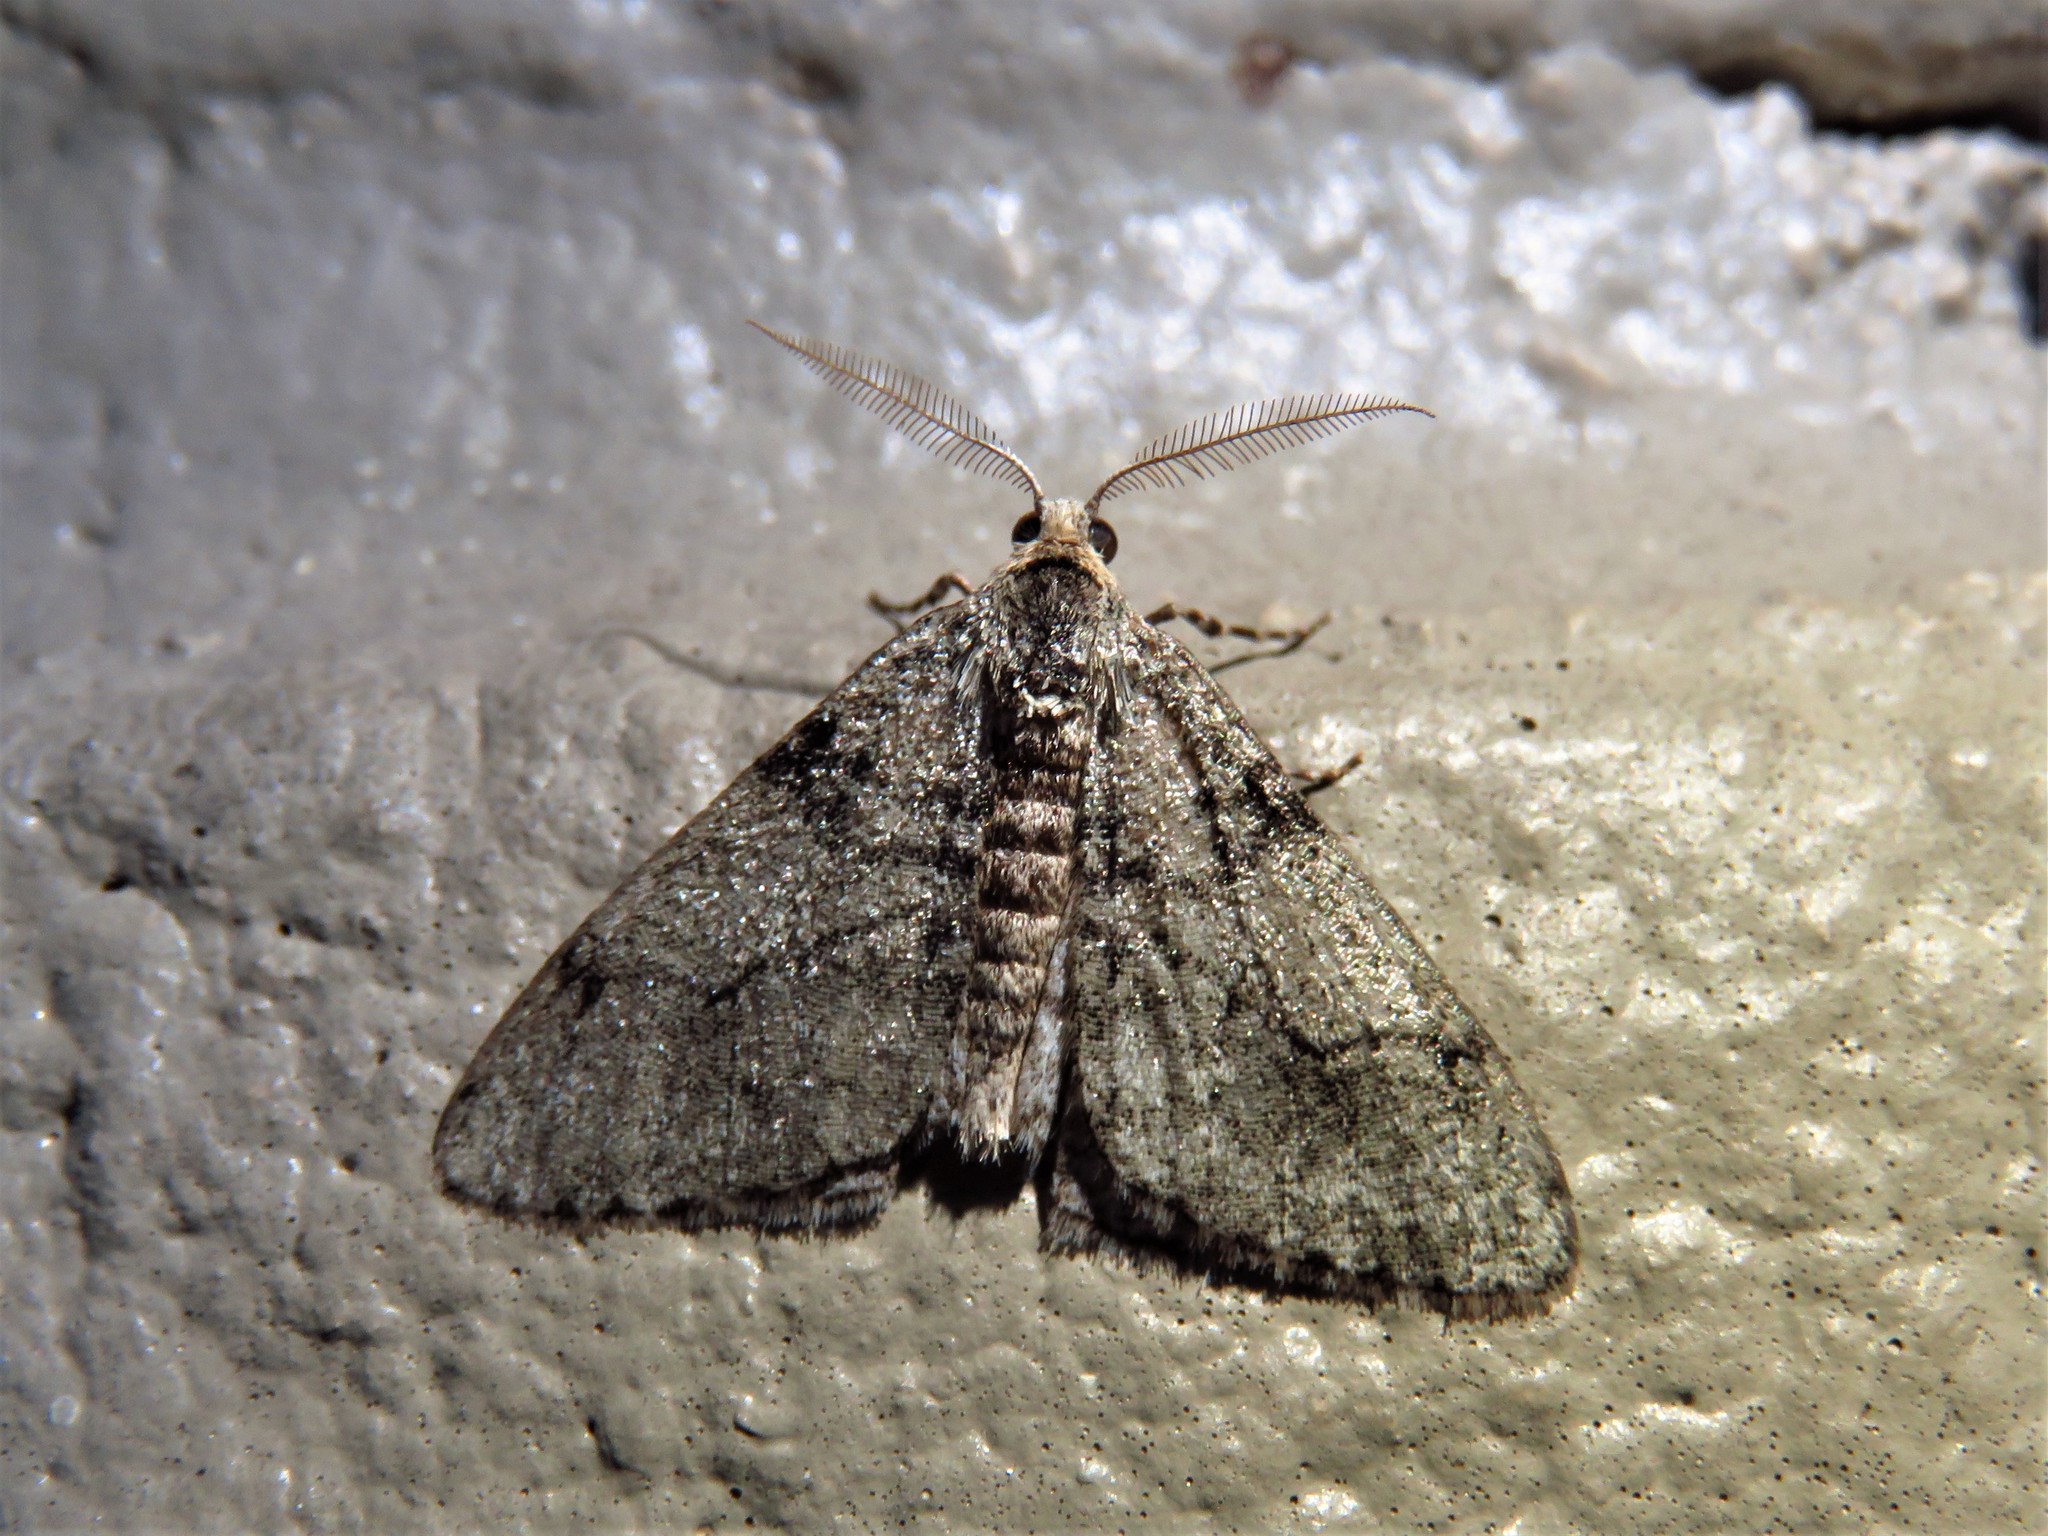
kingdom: Animalia
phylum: Arthropoda
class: Insecta
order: Lepidoptera
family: Geometridae
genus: Phigalia
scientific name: Phigalia strigataria
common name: Small phigalia
